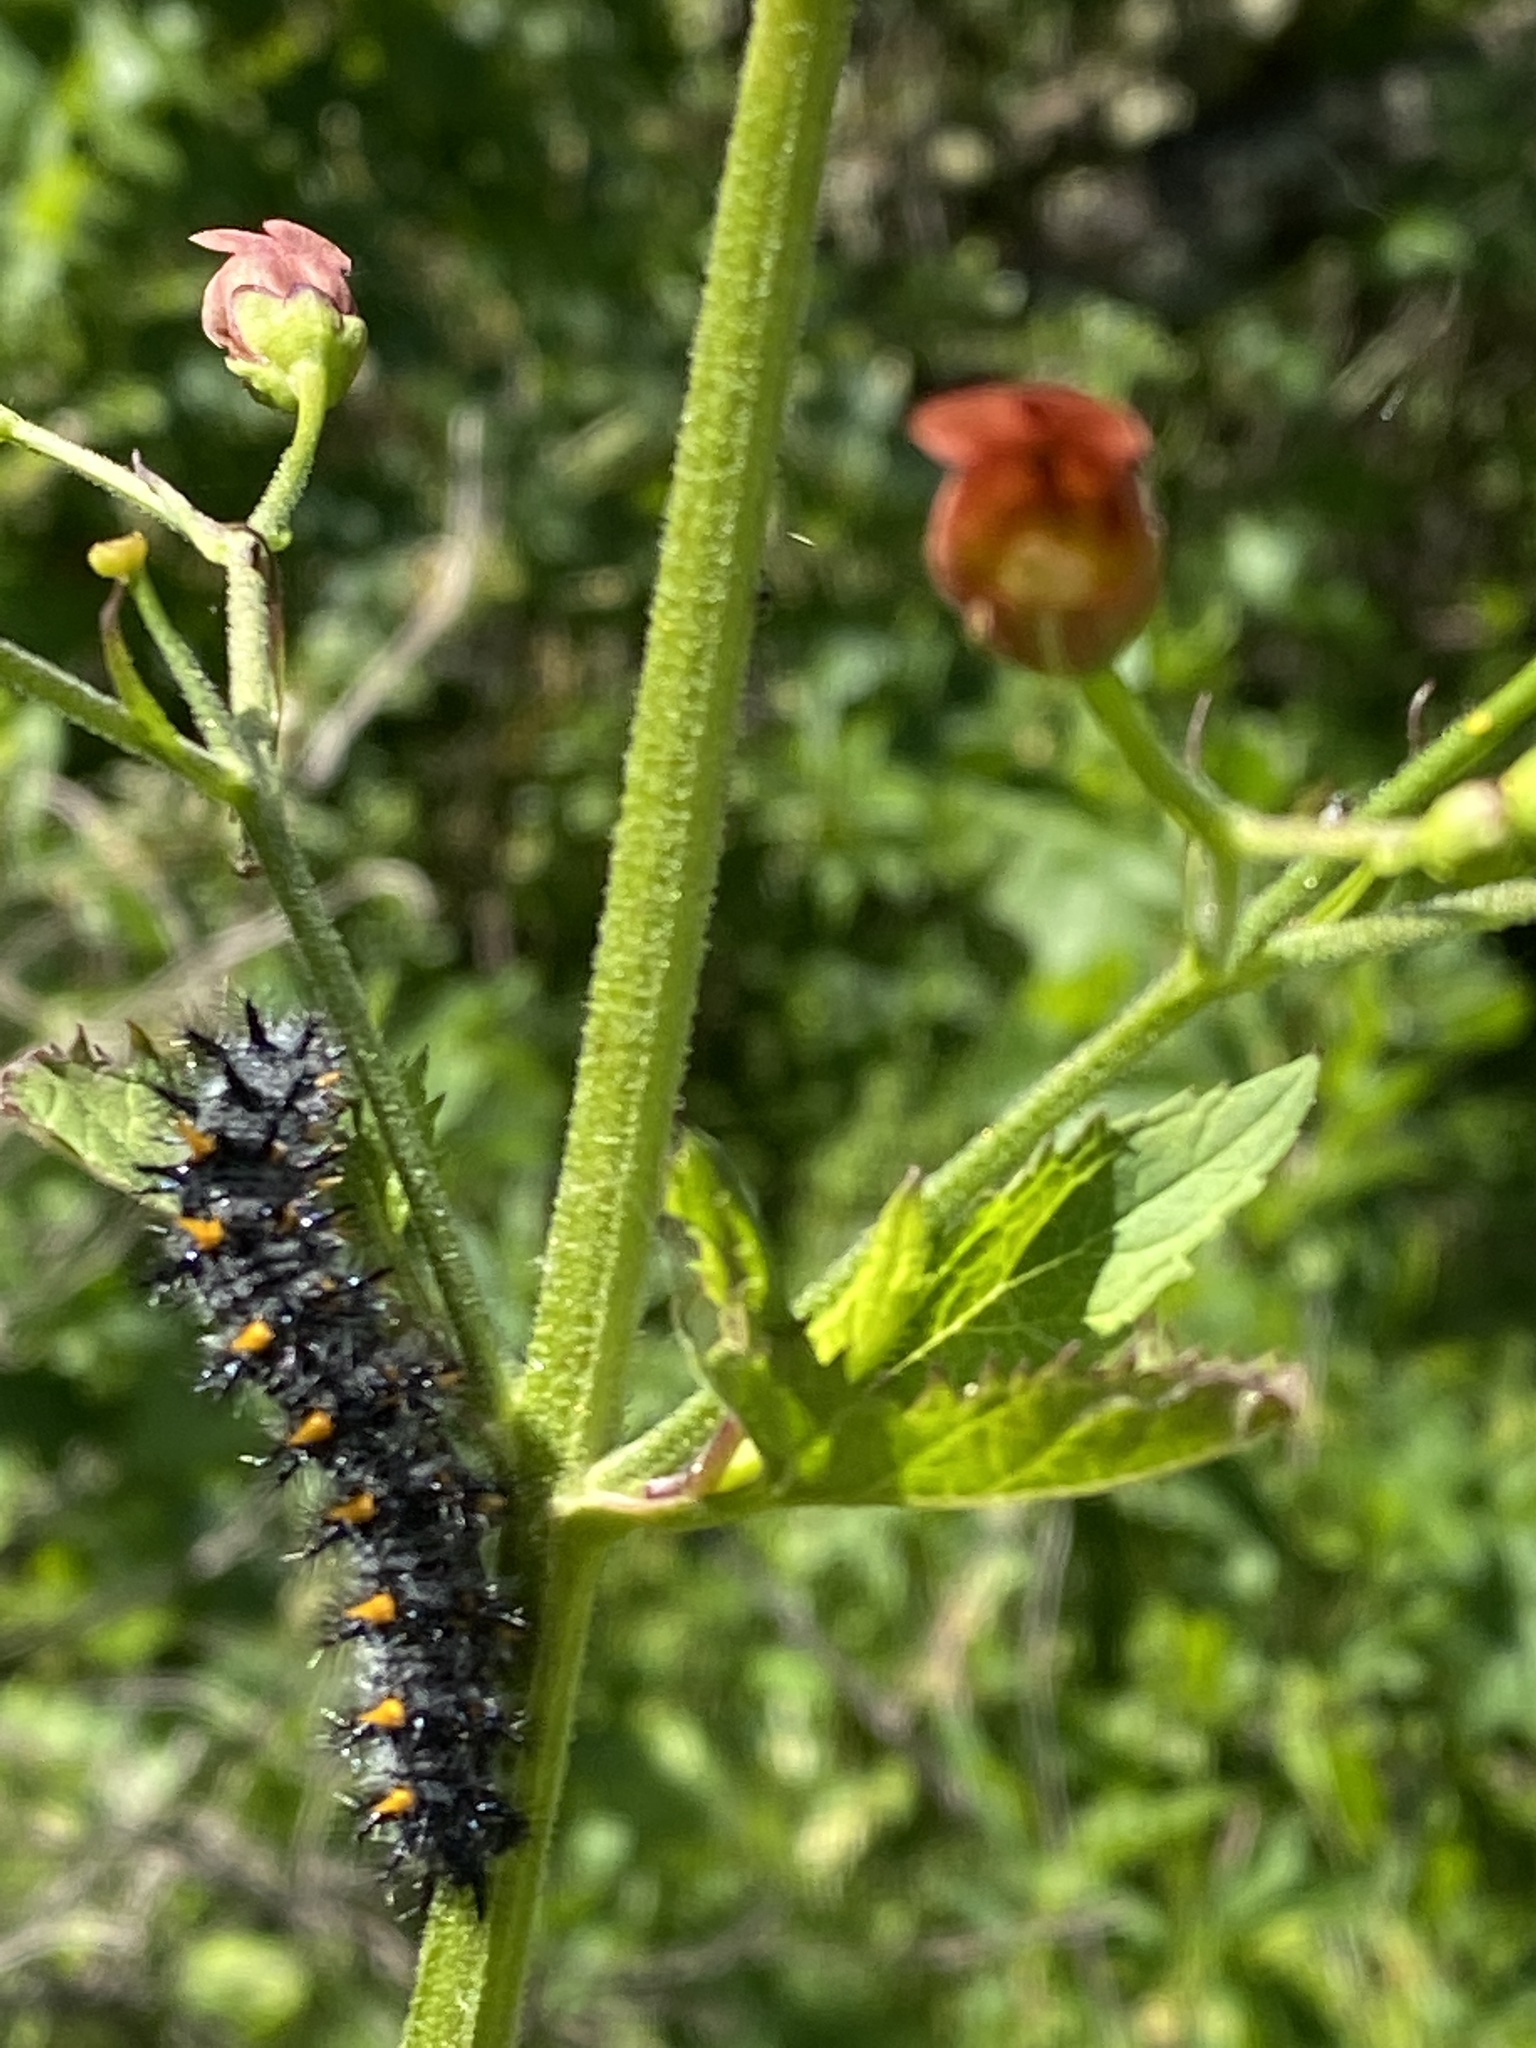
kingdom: Animalia
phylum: Arthropoda
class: Insecta
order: Lepidoptera
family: Nymphalidae
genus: Occidryas
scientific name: Occidryas chalcedona
